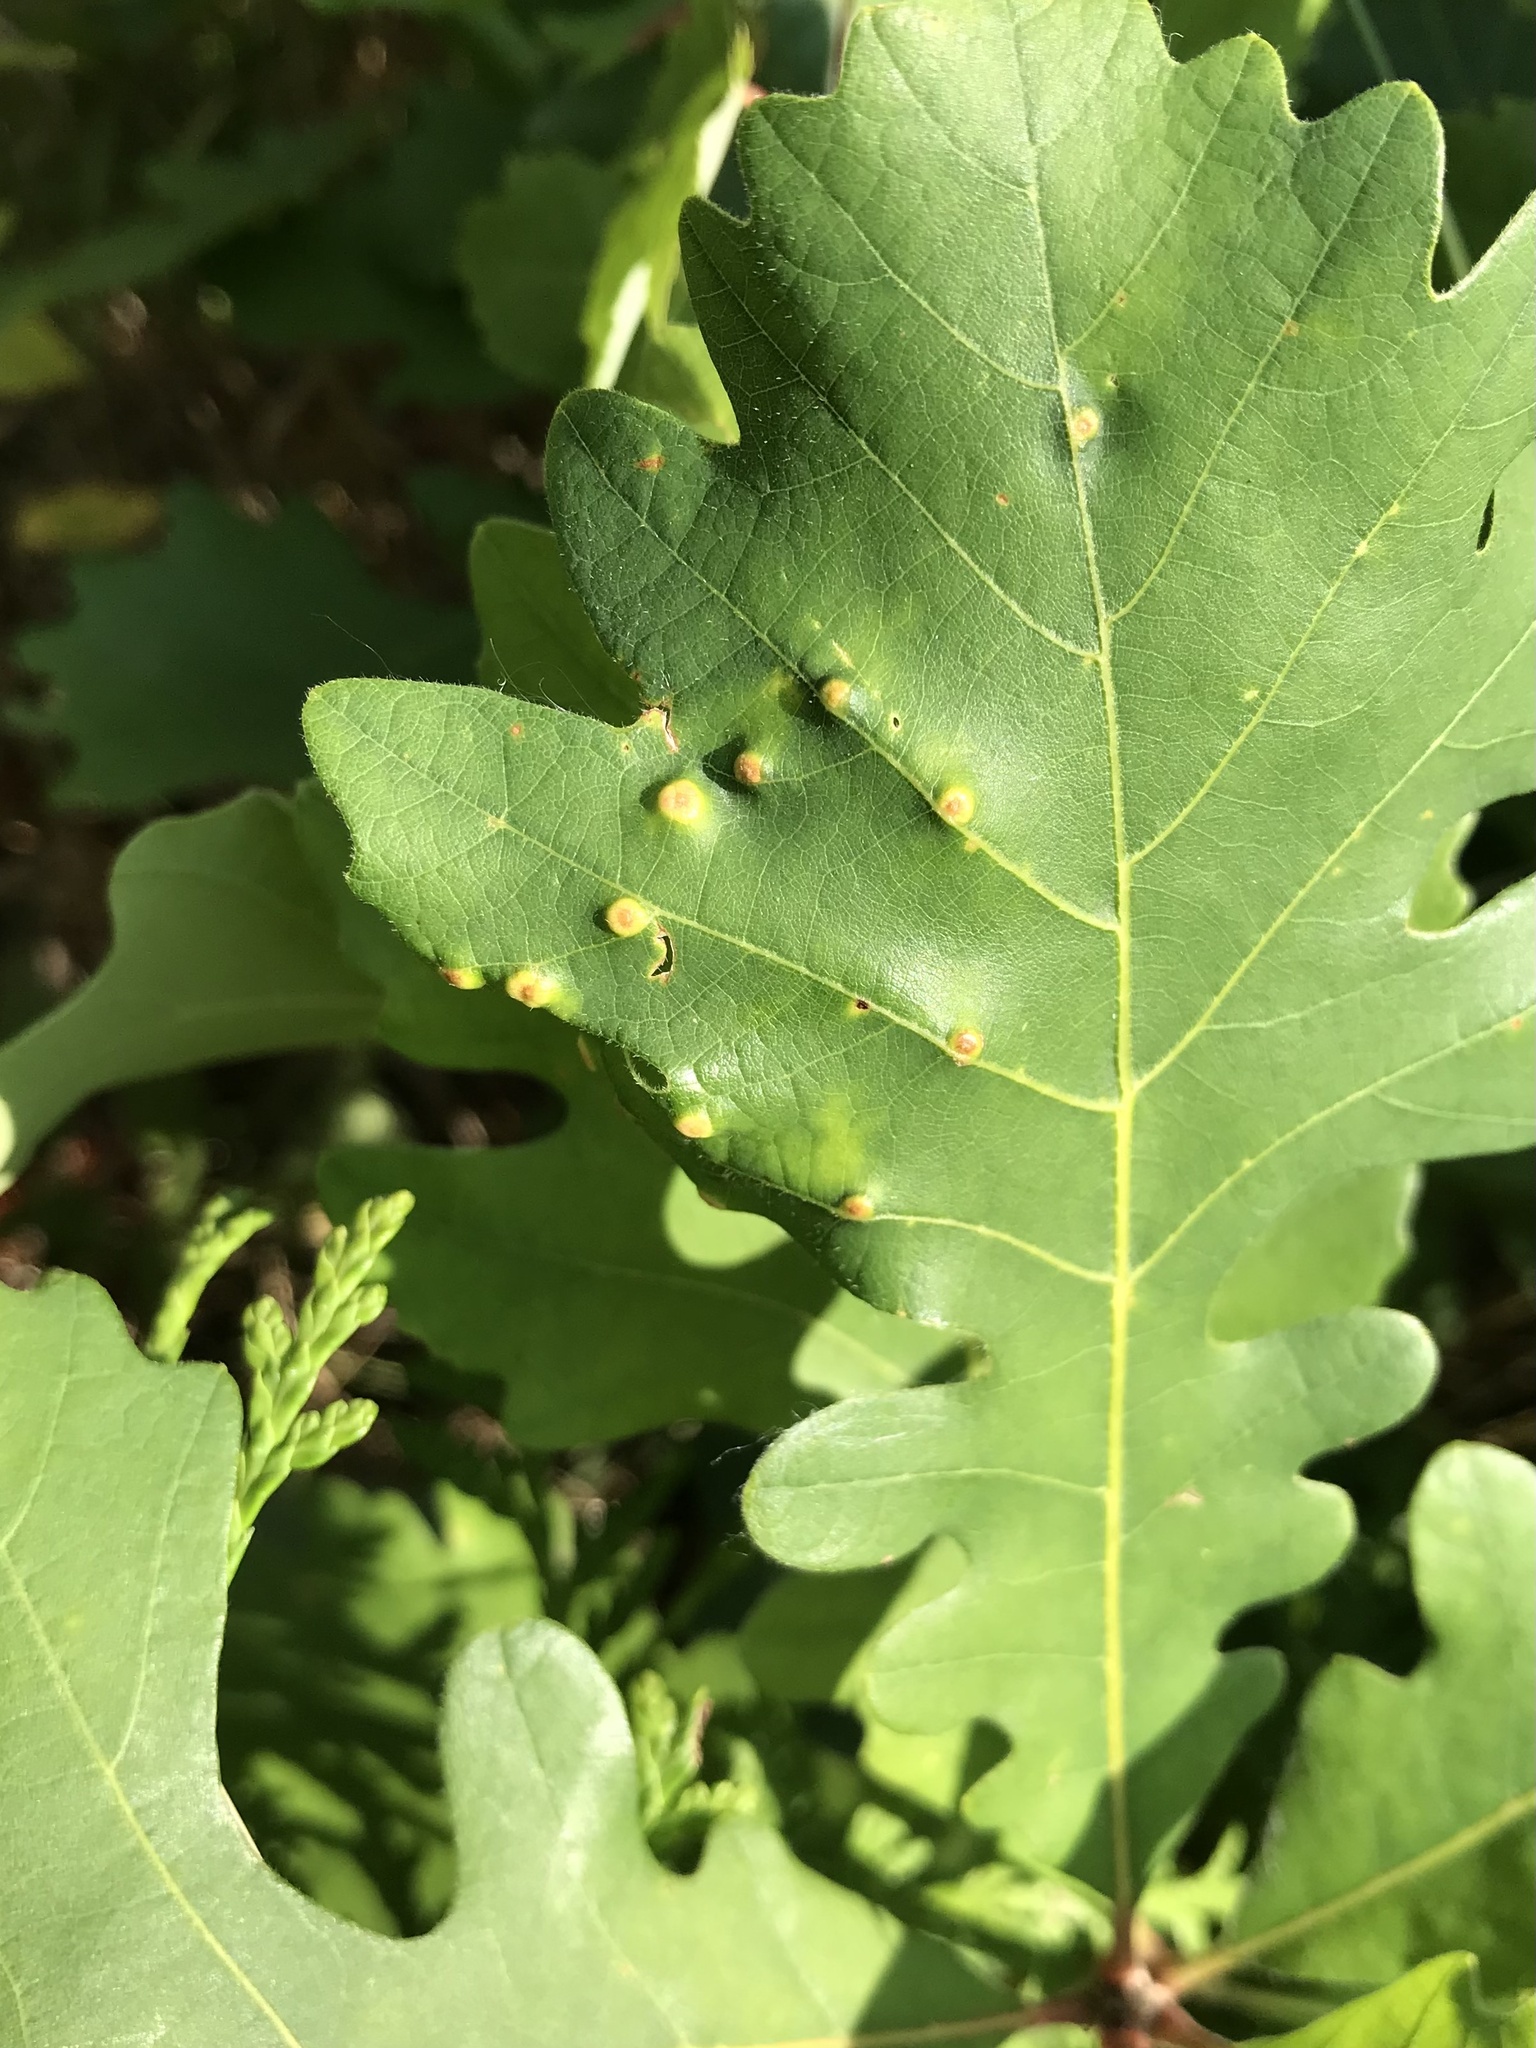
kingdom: Animalia
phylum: Arthropoda
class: Insecta
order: Hymenoptera
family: Cynipidae
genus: Neuroterus
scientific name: Neuroterus saltarius
